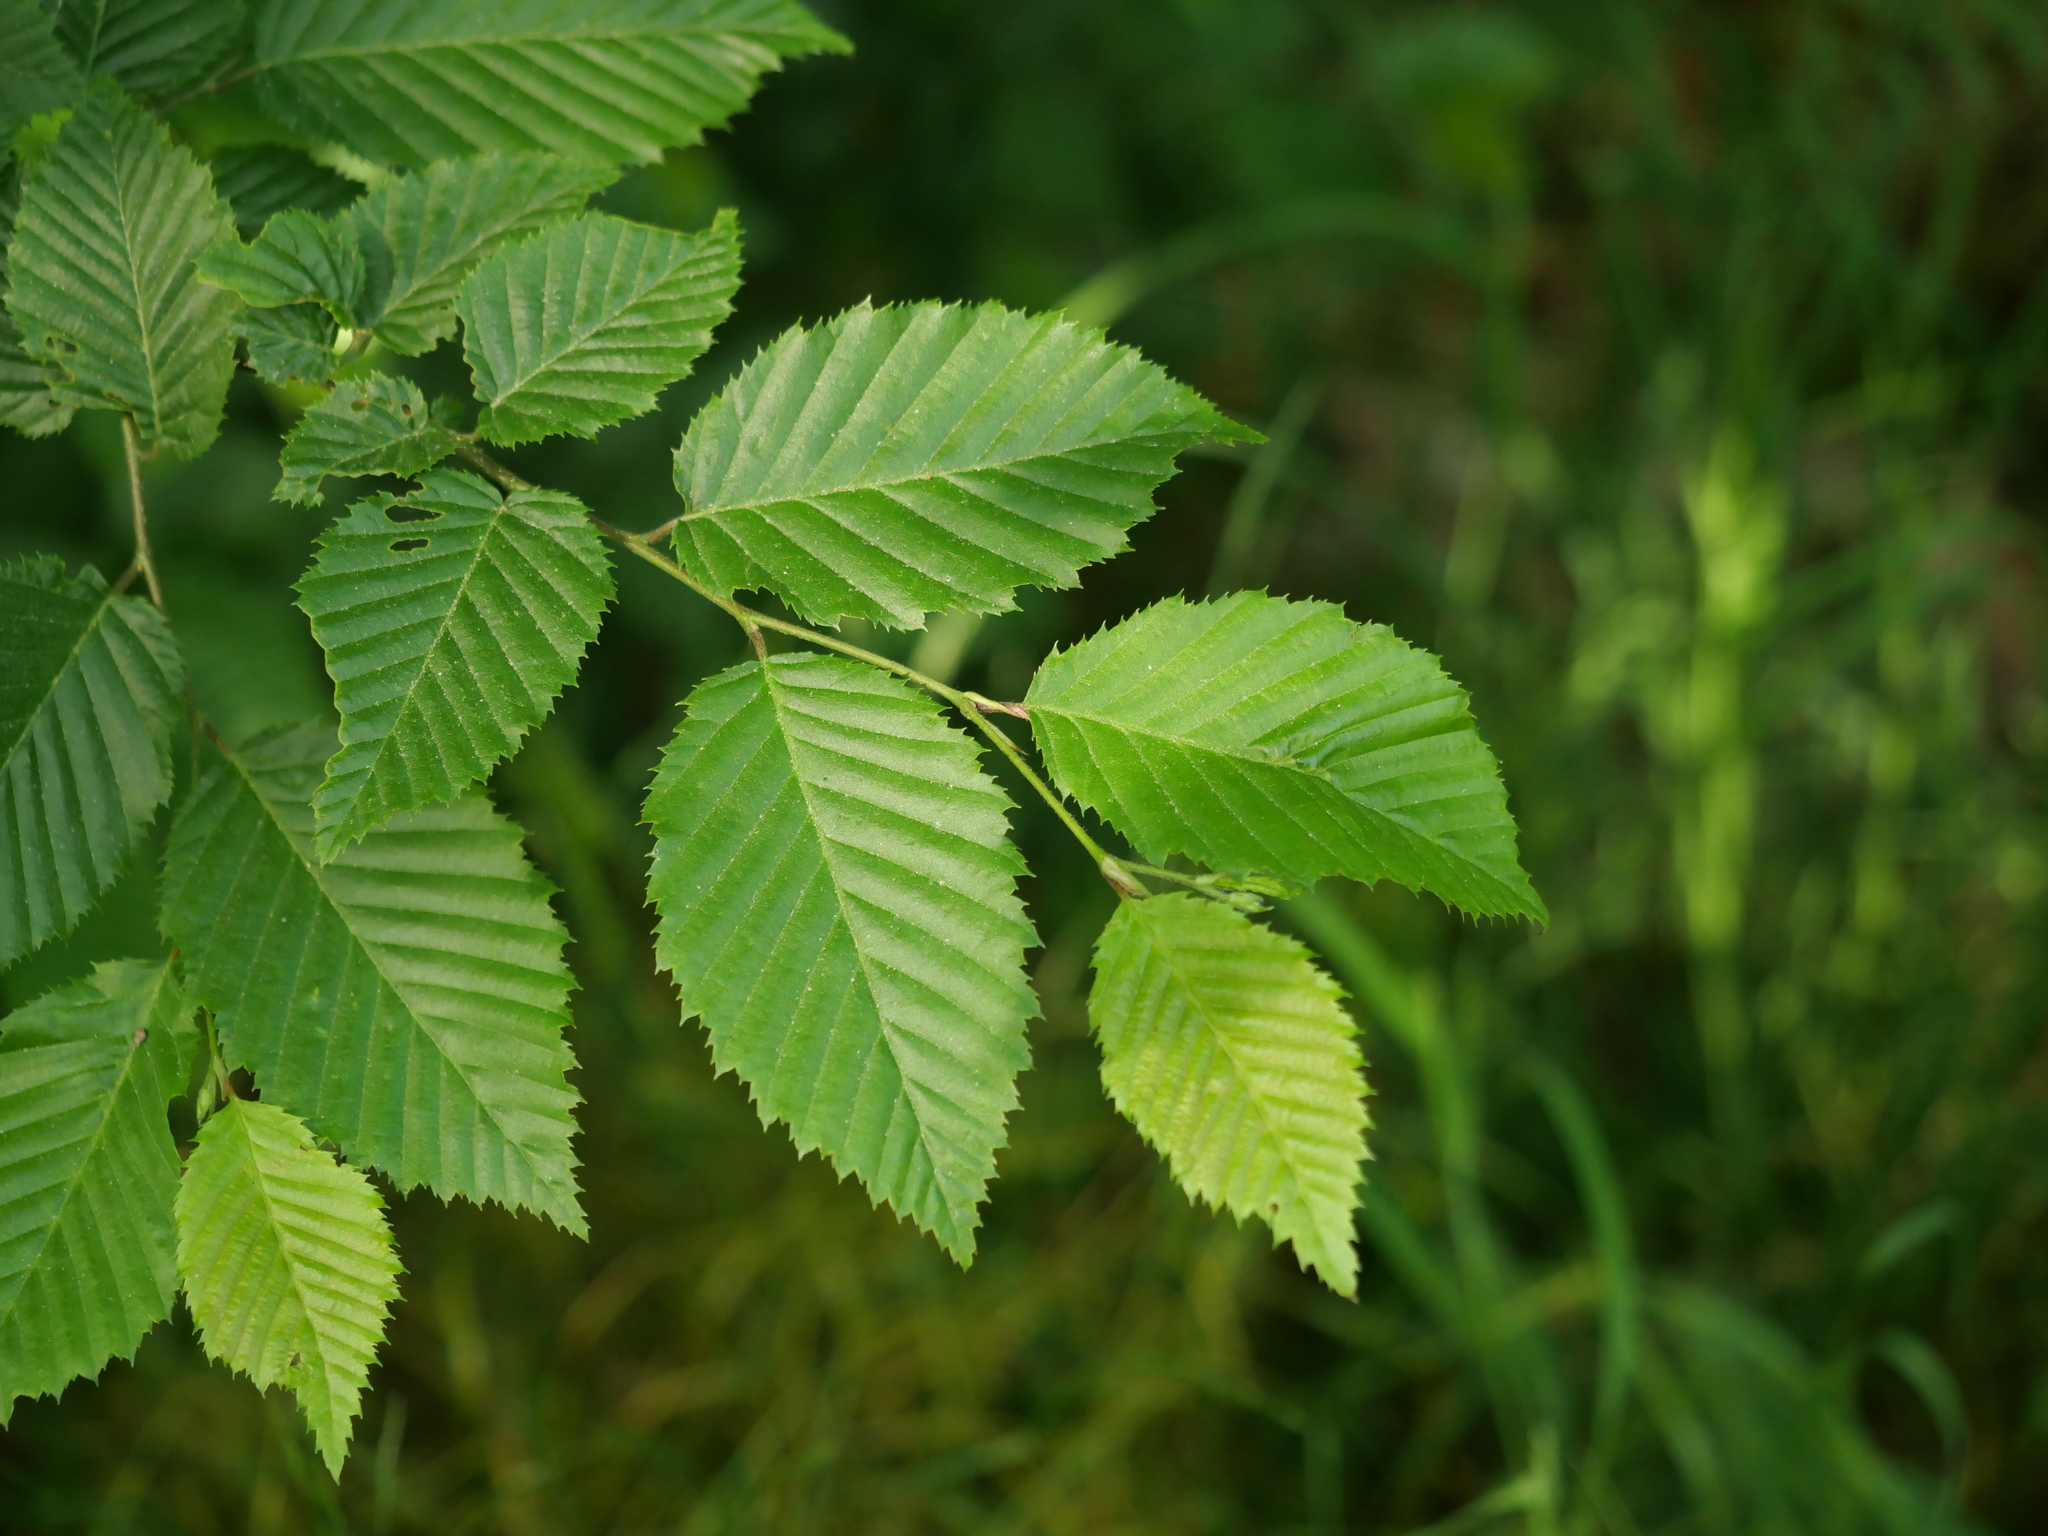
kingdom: Plantae
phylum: Tracheophyta
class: Magnoliopsida
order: Fagales
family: Betulaceae
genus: Carpinus
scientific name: Carpinus betulus
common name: Hornbeam
